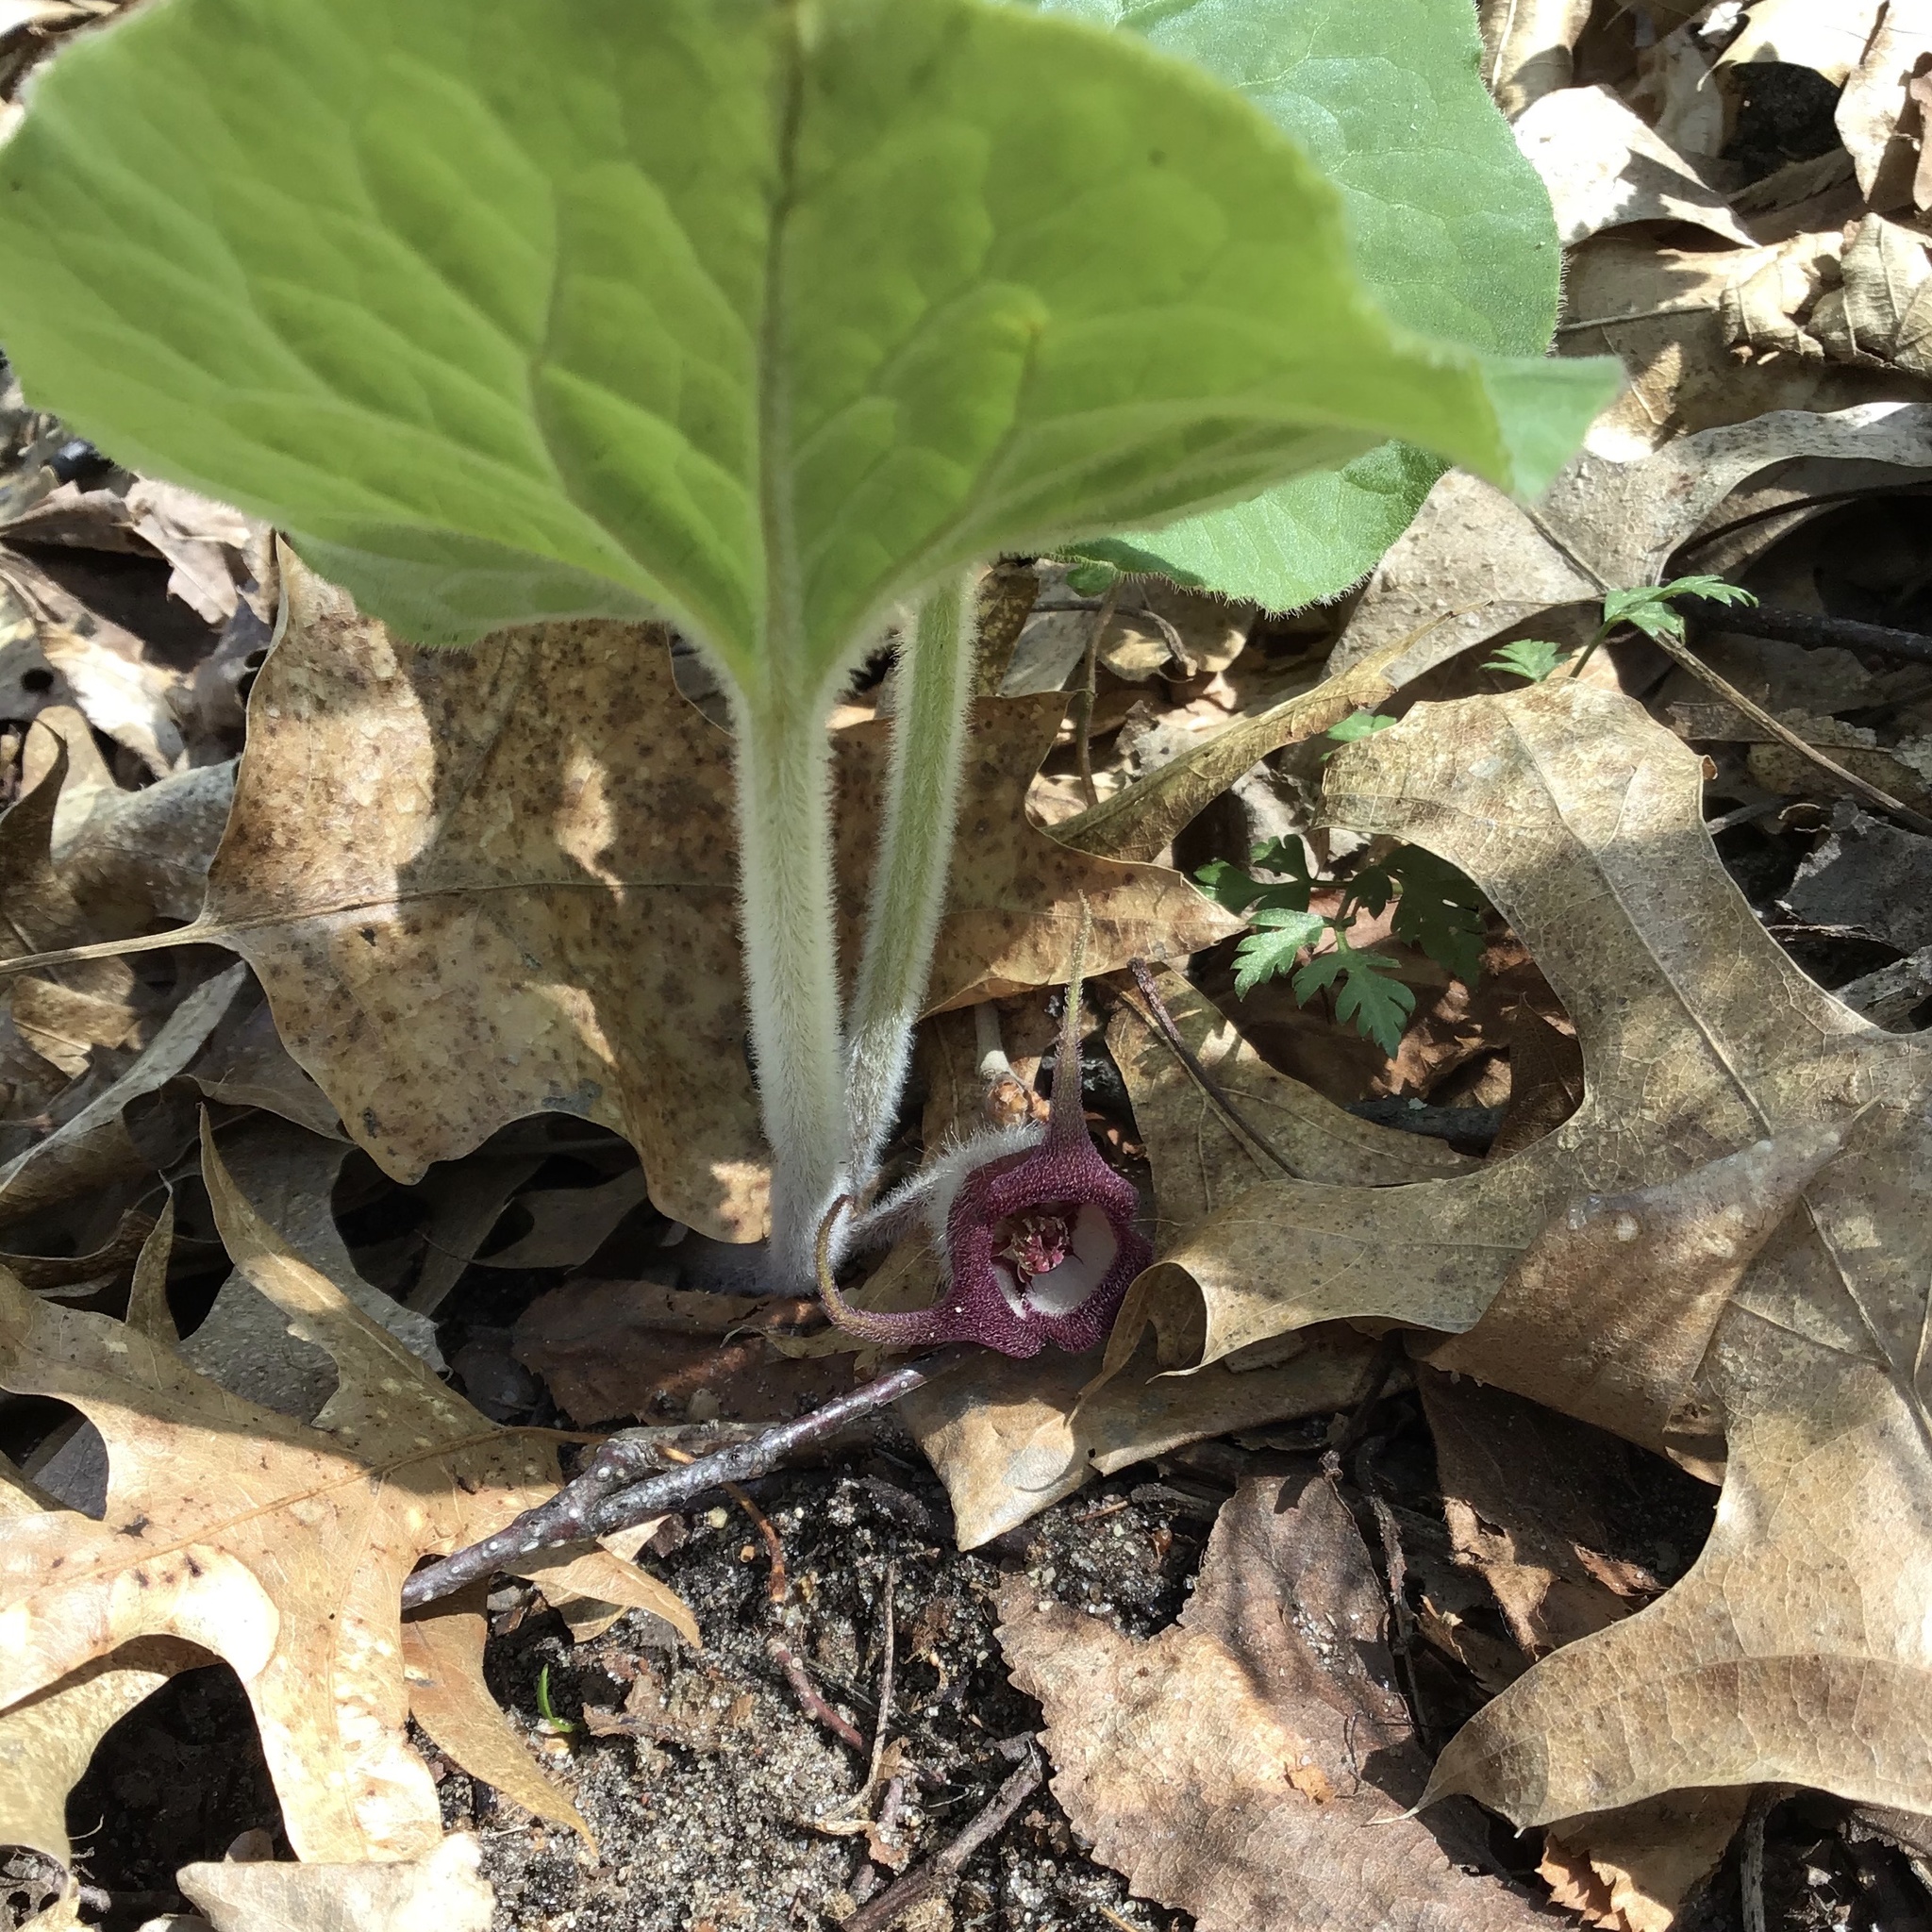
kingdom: Plantae
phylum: Tracheophyta
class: Magnoliopsida
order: Piperales
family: Aristolochiaceae
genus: Asarum
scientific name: Asarum canadense
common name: Wild ginger
